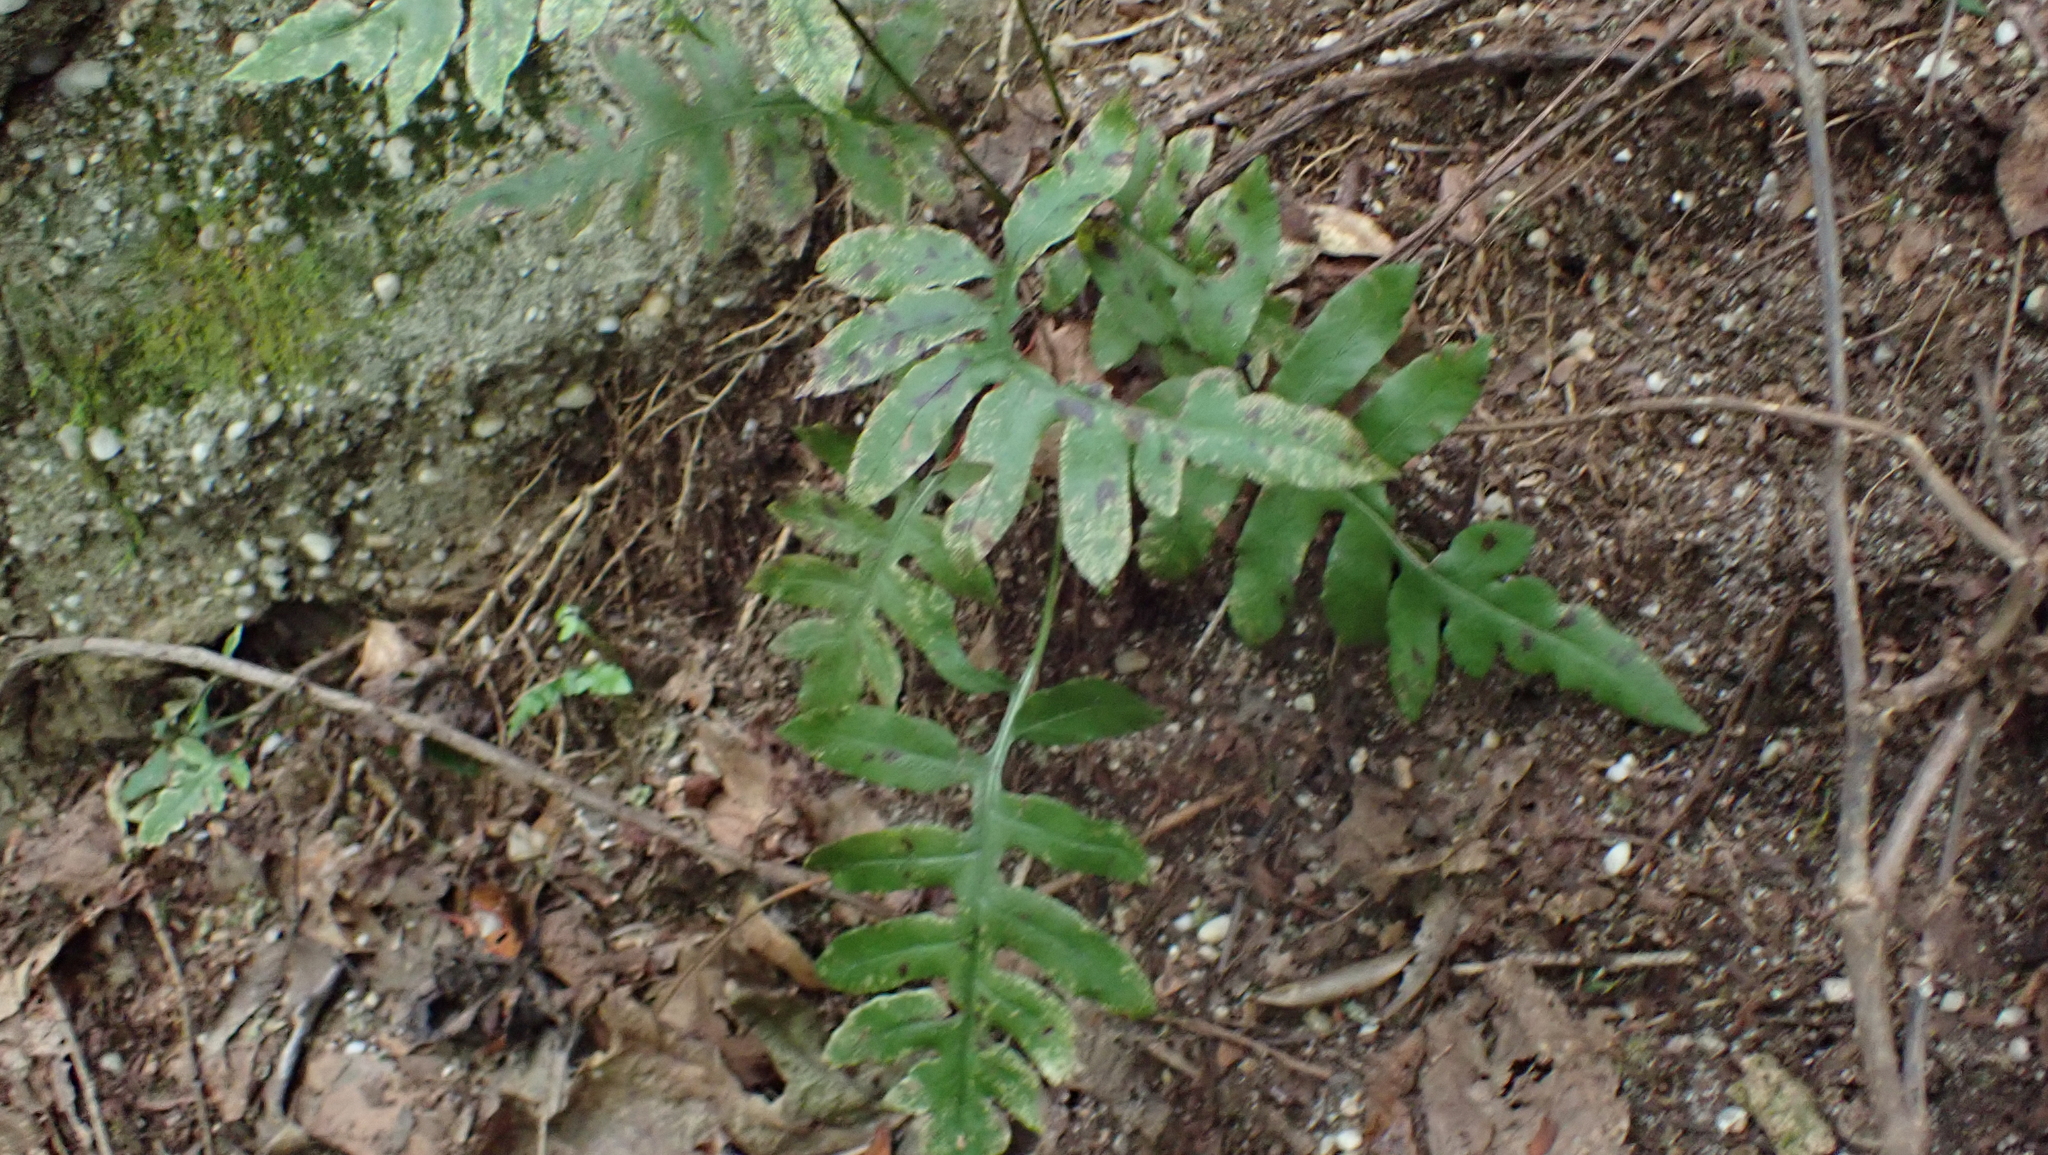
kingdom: Plantae
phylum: Tracheophyta
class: Polypodiopsida
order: Polypodiales
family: Blechnaceae
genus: Lorinseria
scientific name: Lorinseria areolata
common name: Dwarf chain fern
